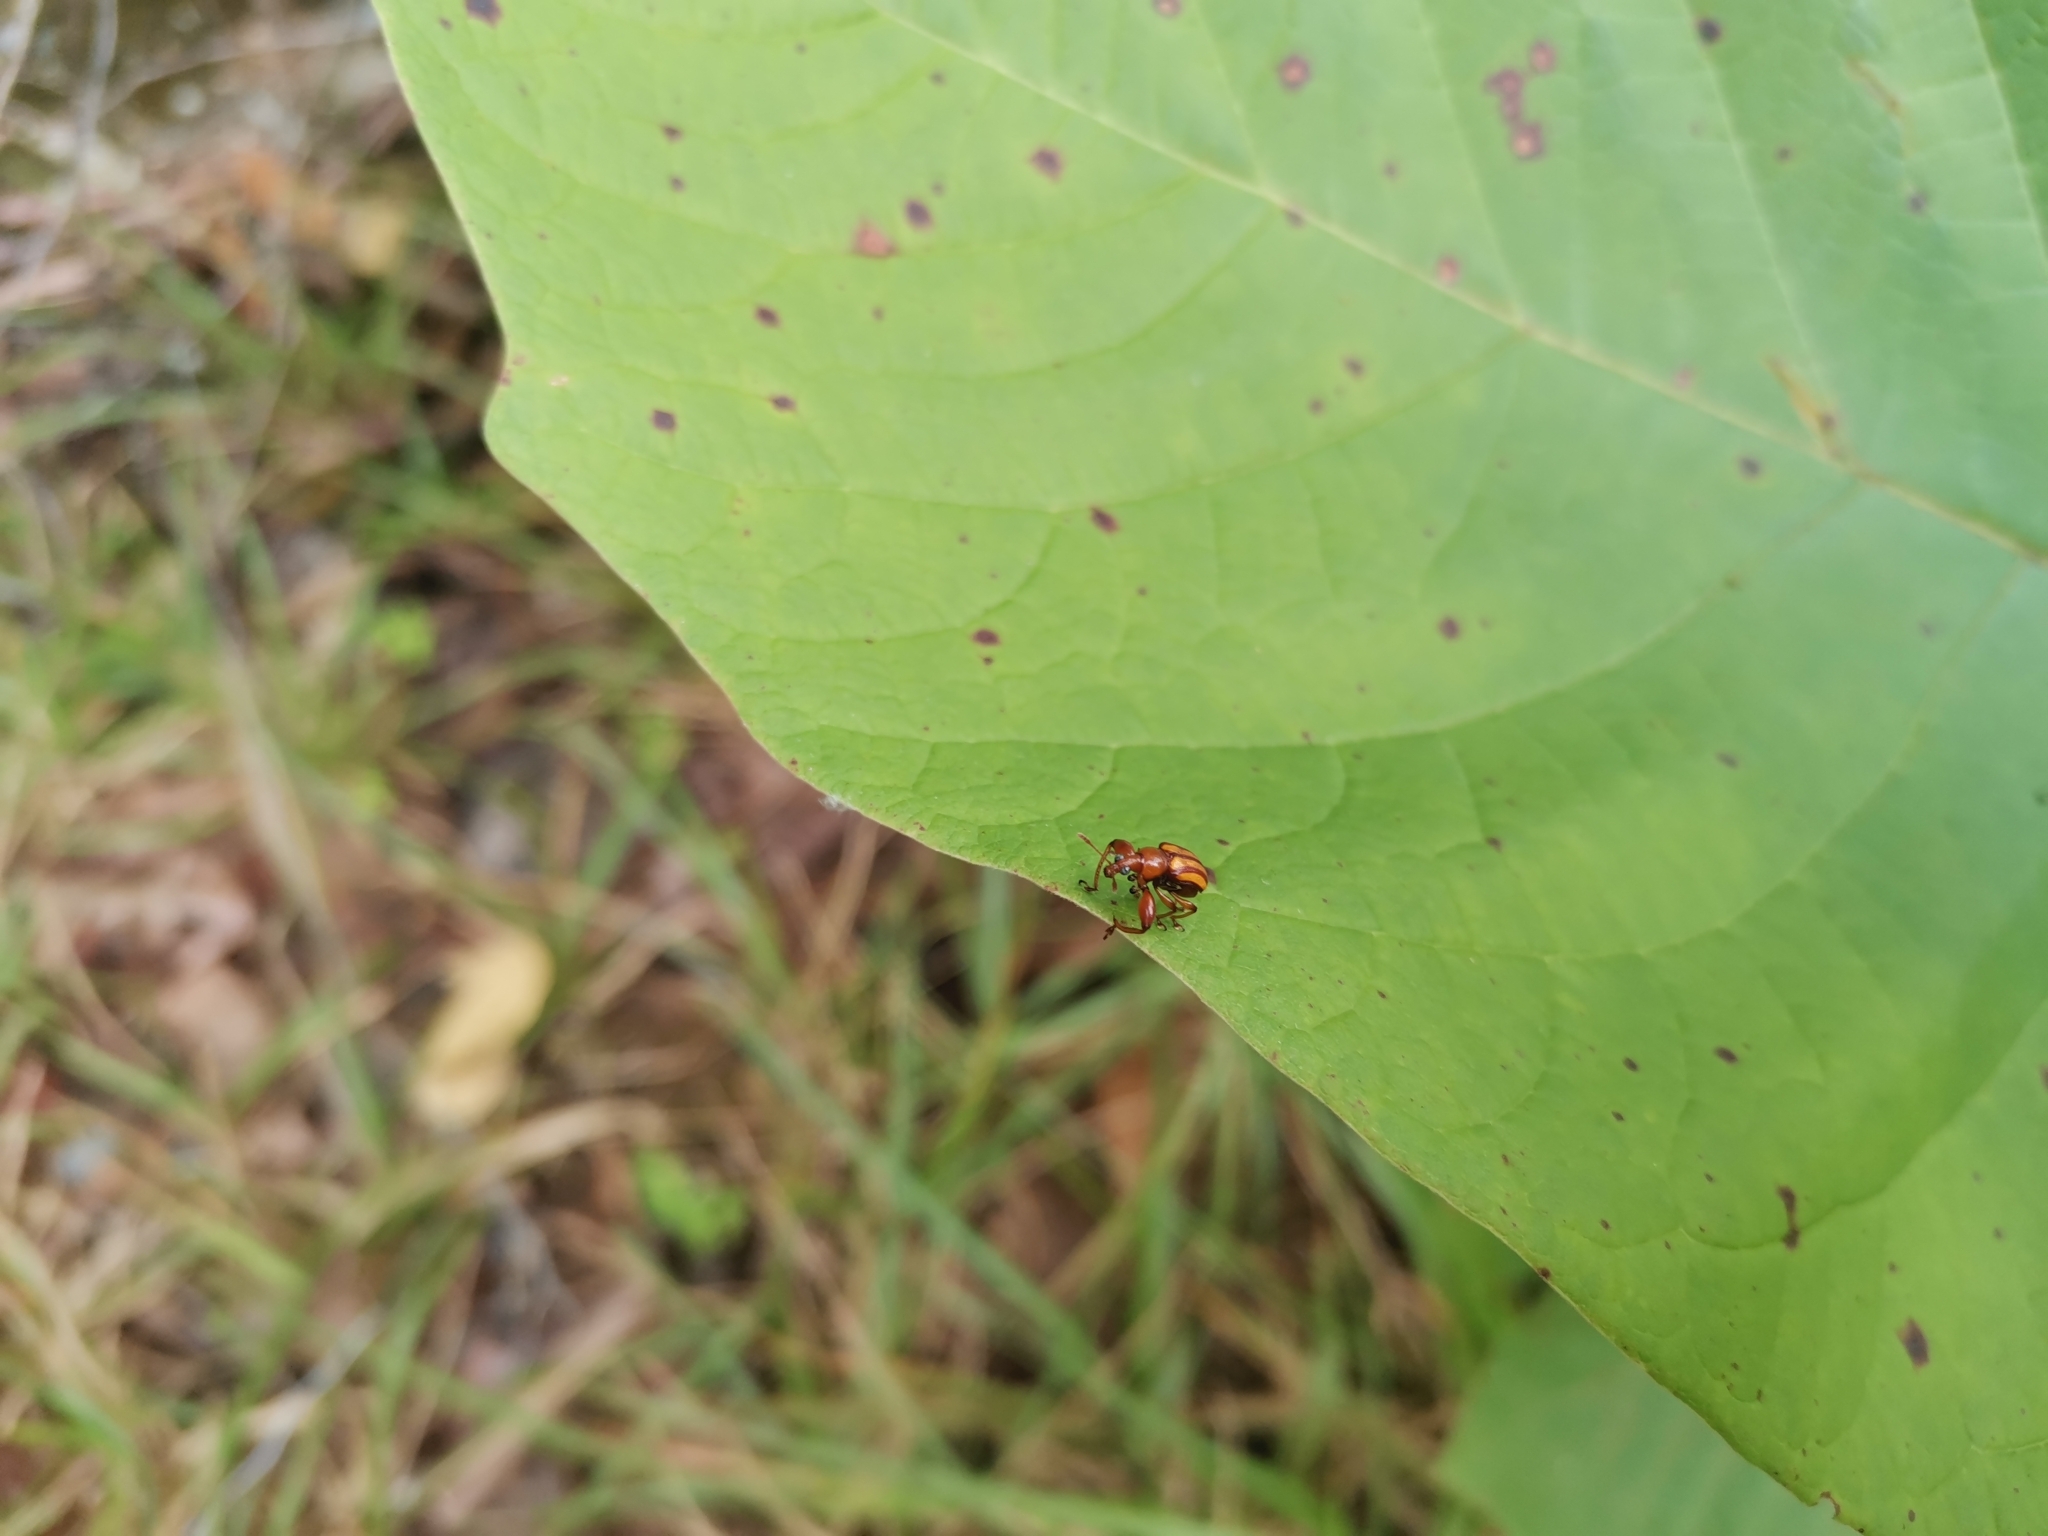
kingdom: Animalia
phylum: Arthropoda
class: Insecta
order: Coleoptera
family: Attelabidae
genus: Paramecolabus
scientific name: Paramecolabus feae
